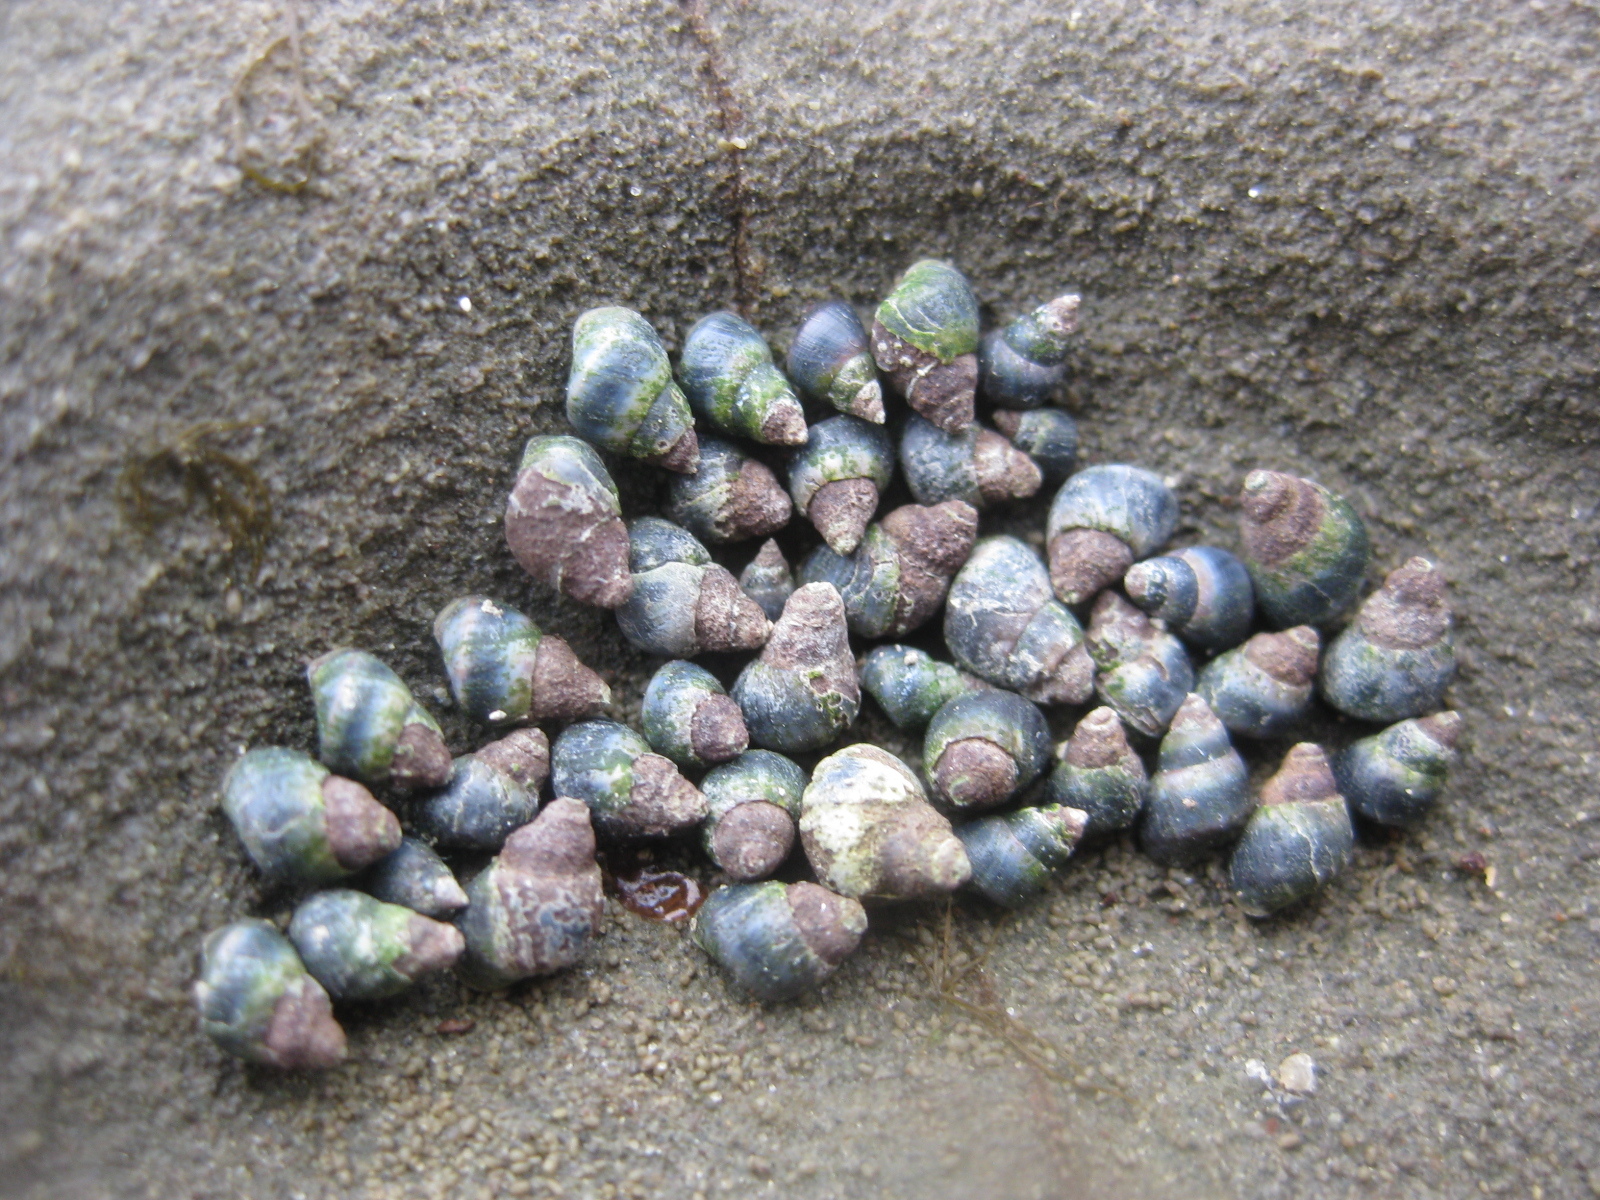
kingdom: Animalia
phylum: Mollusca
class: Gastropoda
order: Littorinimorpha
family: Littorinidae
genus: Austrolittorina
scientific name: Austrolittorina antipodum
